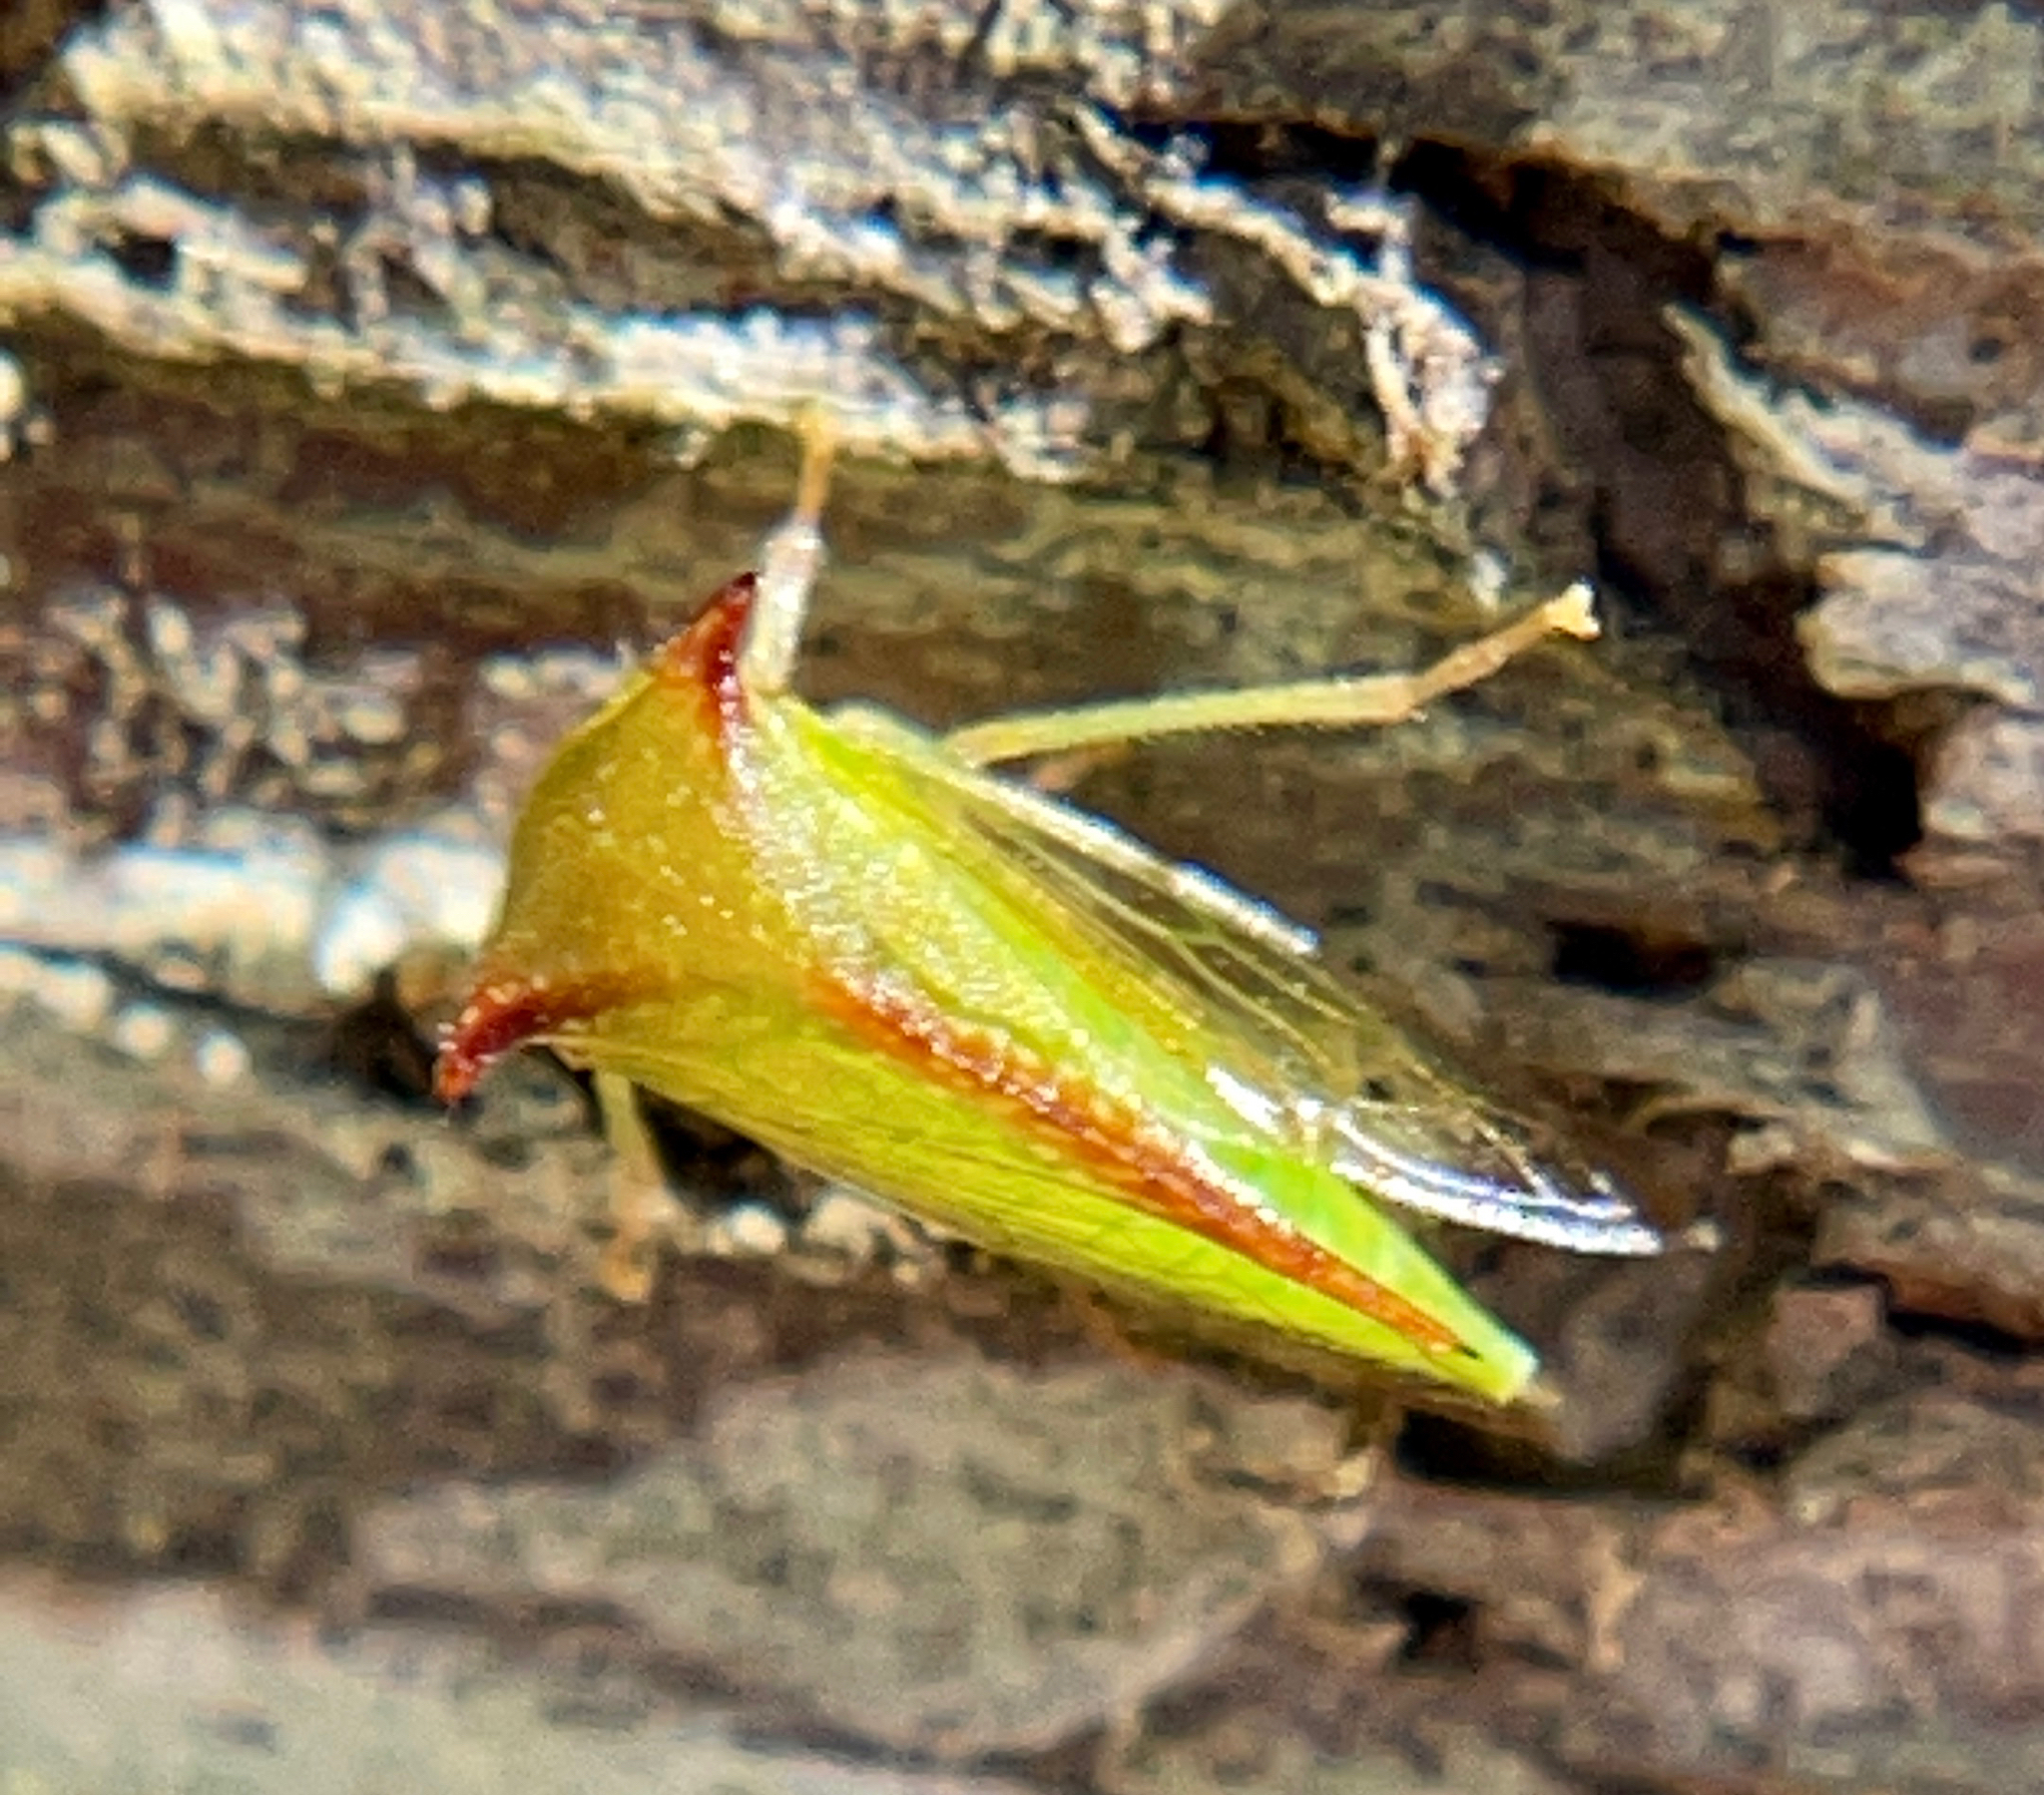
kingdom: Animalia
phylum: Arthropoda
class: Insecta
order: Hemiptera
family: Membracidae
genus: Stictocephala
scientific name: Stictocephala militaris
